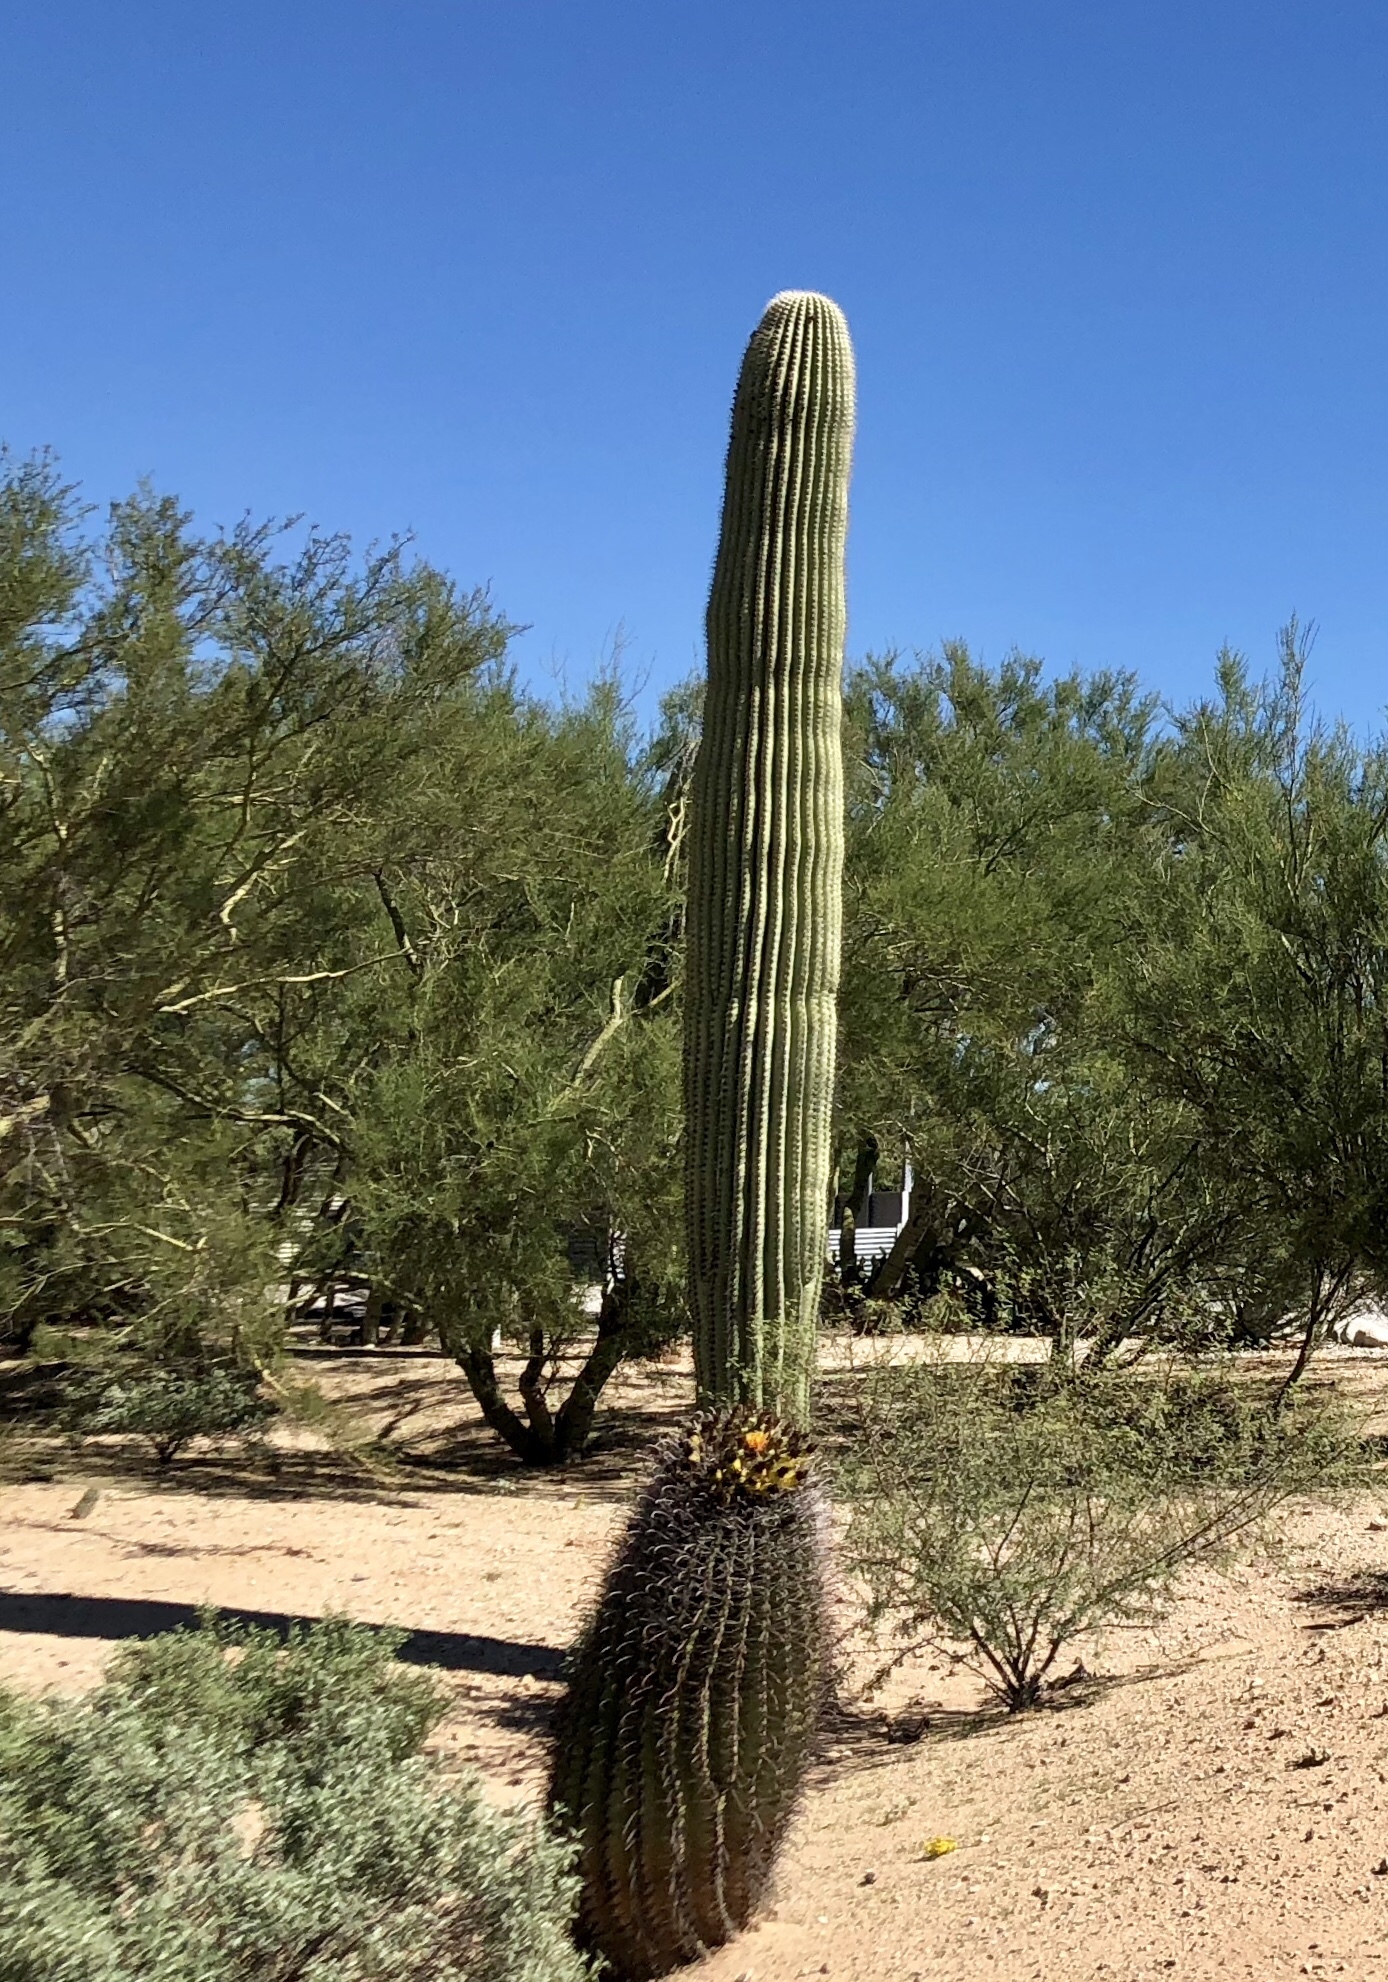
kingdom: Plantae
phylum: Tracheophyta
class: Magnoliopsida
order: Caryophyllales
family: Cactaceae
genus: Carnegiea
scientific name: Carnegiea gigantea
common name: Saguaro
